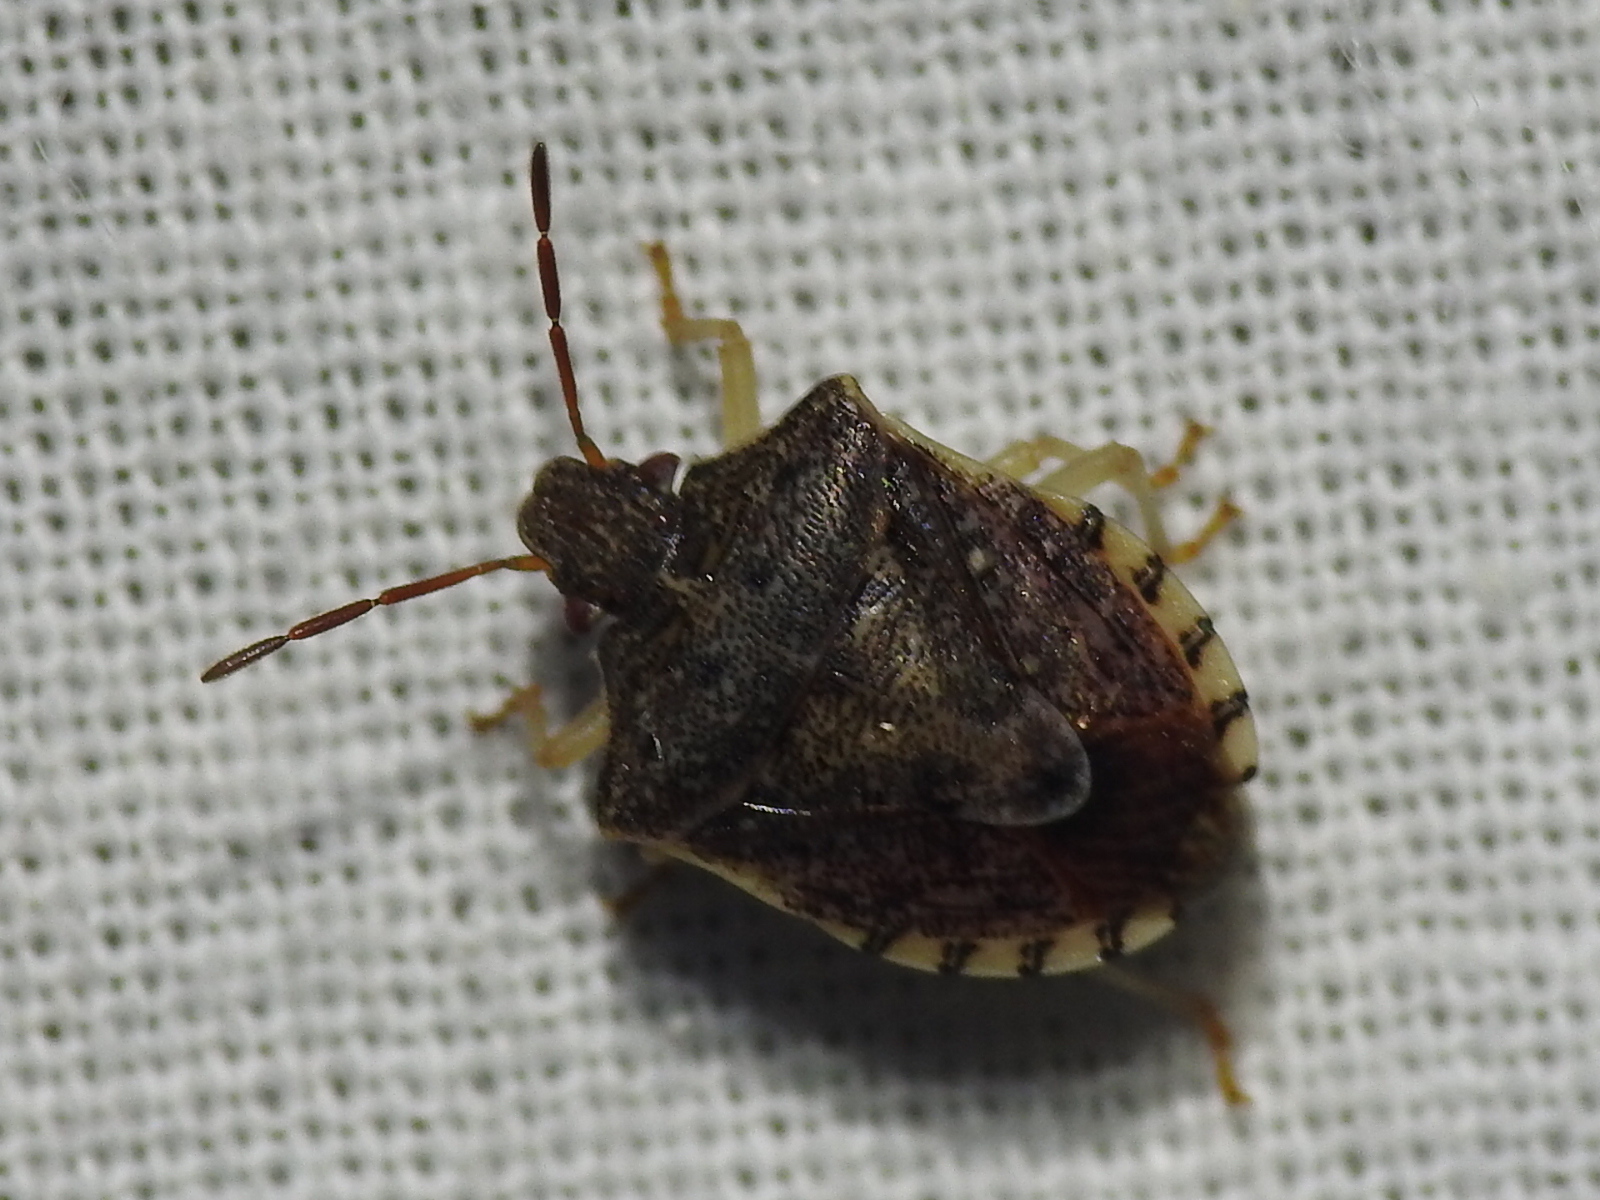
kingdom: Animalia
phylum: Arthropoda
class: Insecta
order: Hemiptera
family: Pentatomidae
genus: Dendrocoris
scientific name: Dendrocoris humeralis
